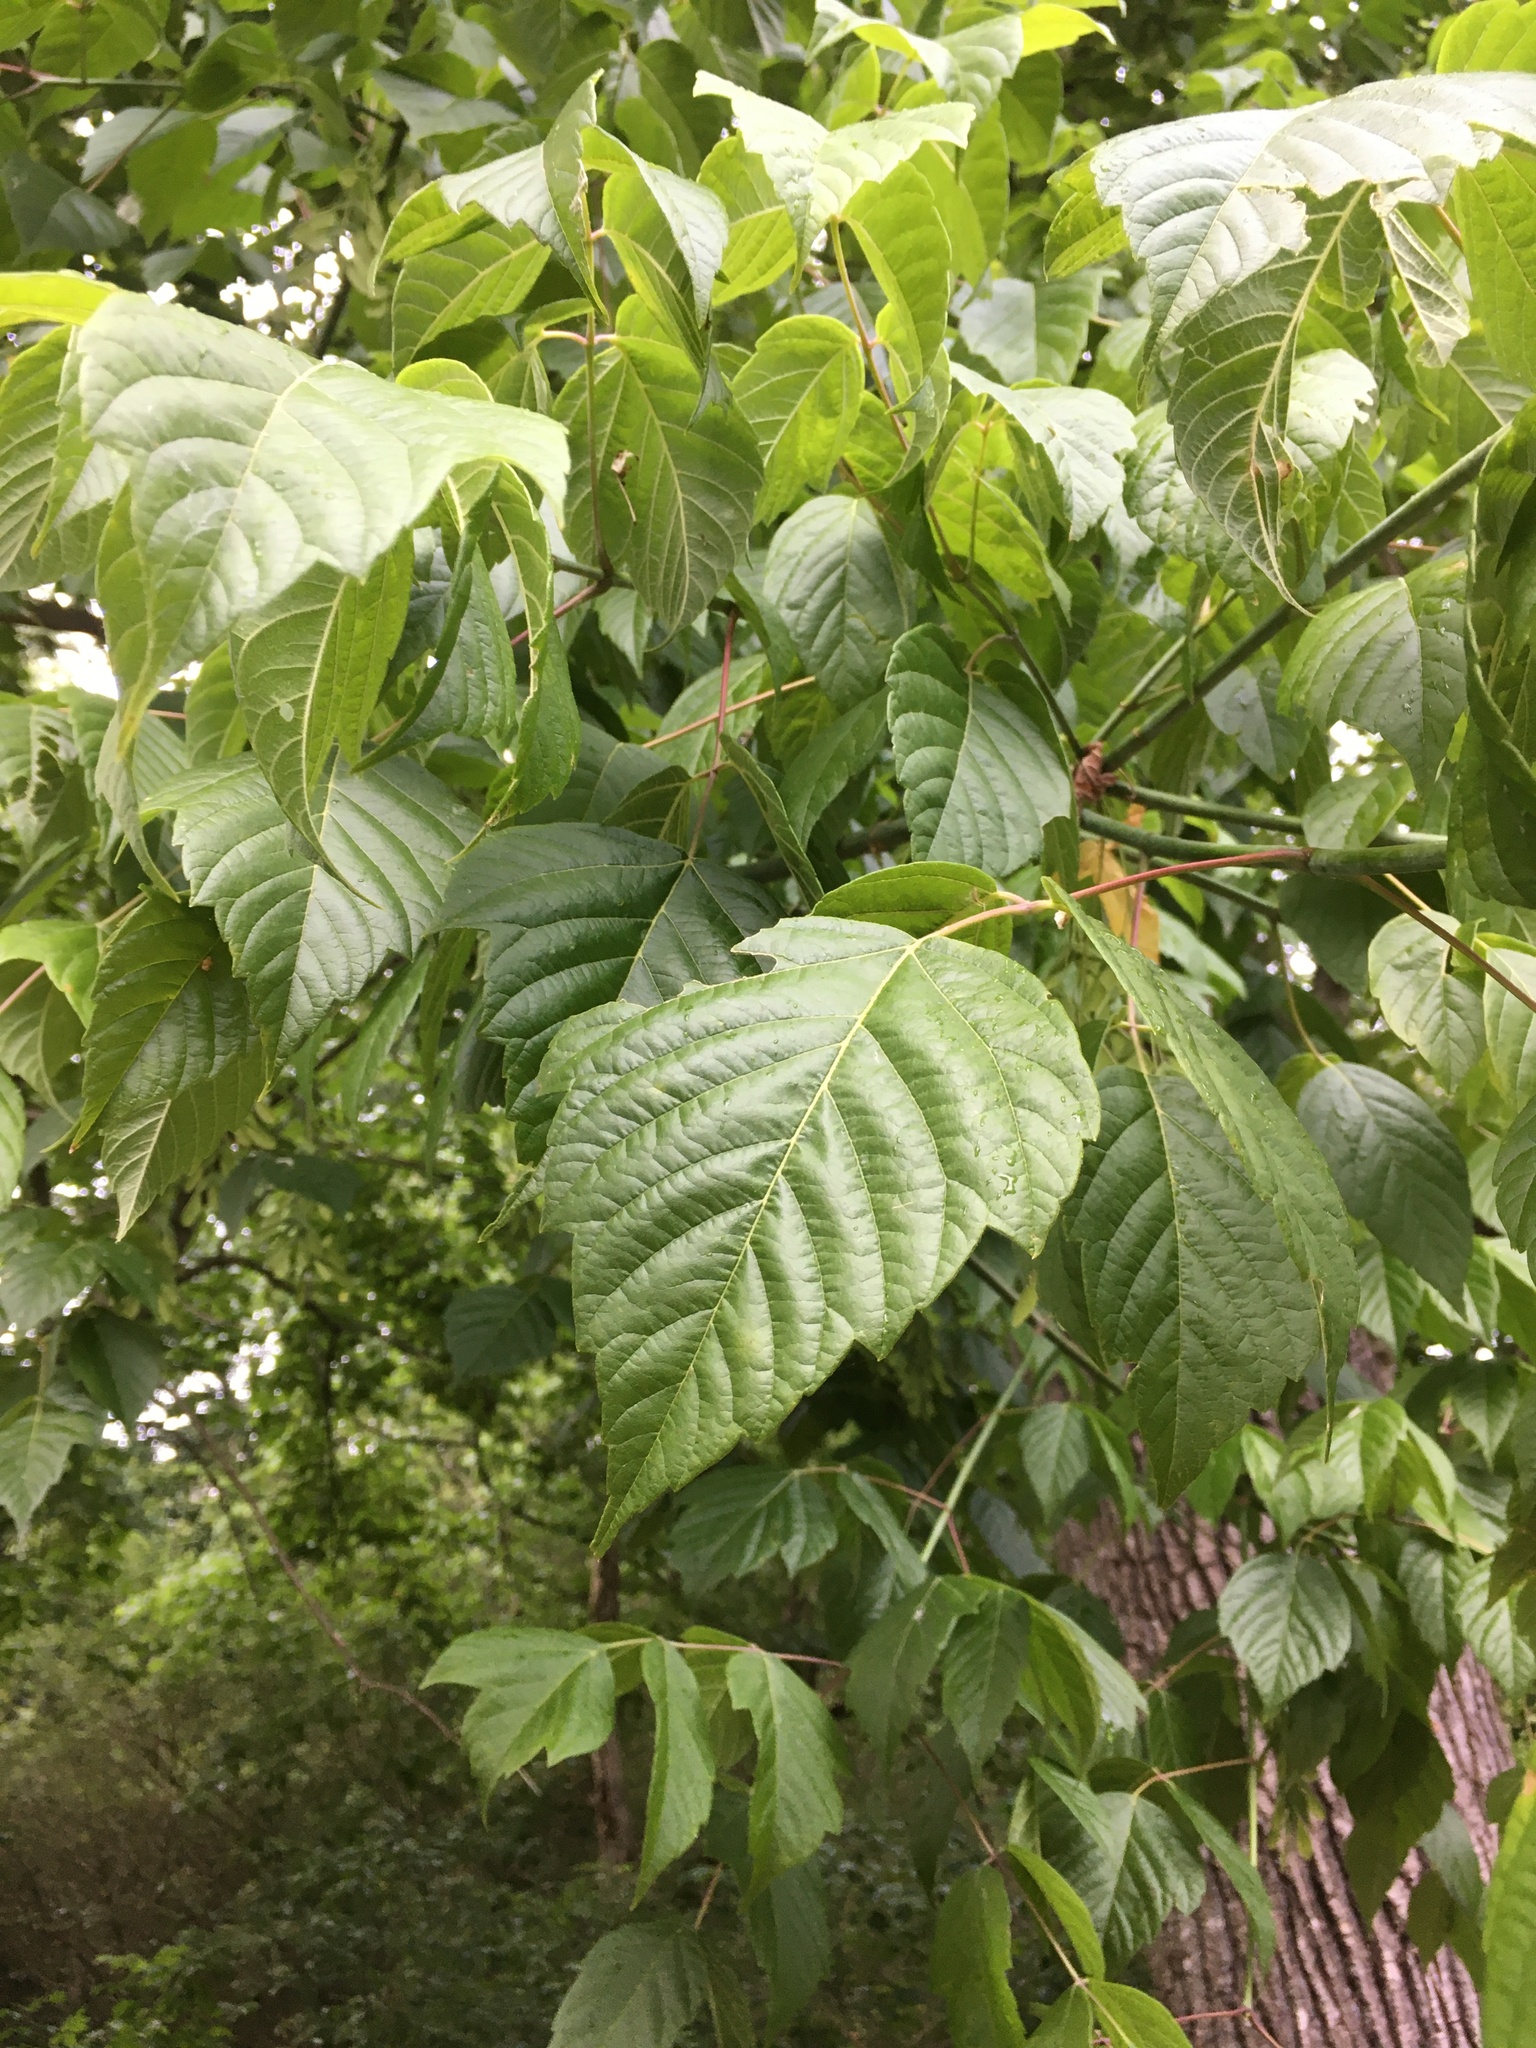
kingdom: Plantae
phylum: Tracheophyta
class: Magnoliopsida
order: Sapindales
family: Sapindaceae
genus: Acer
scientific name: Acer negundo
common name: Ashleaf maple
